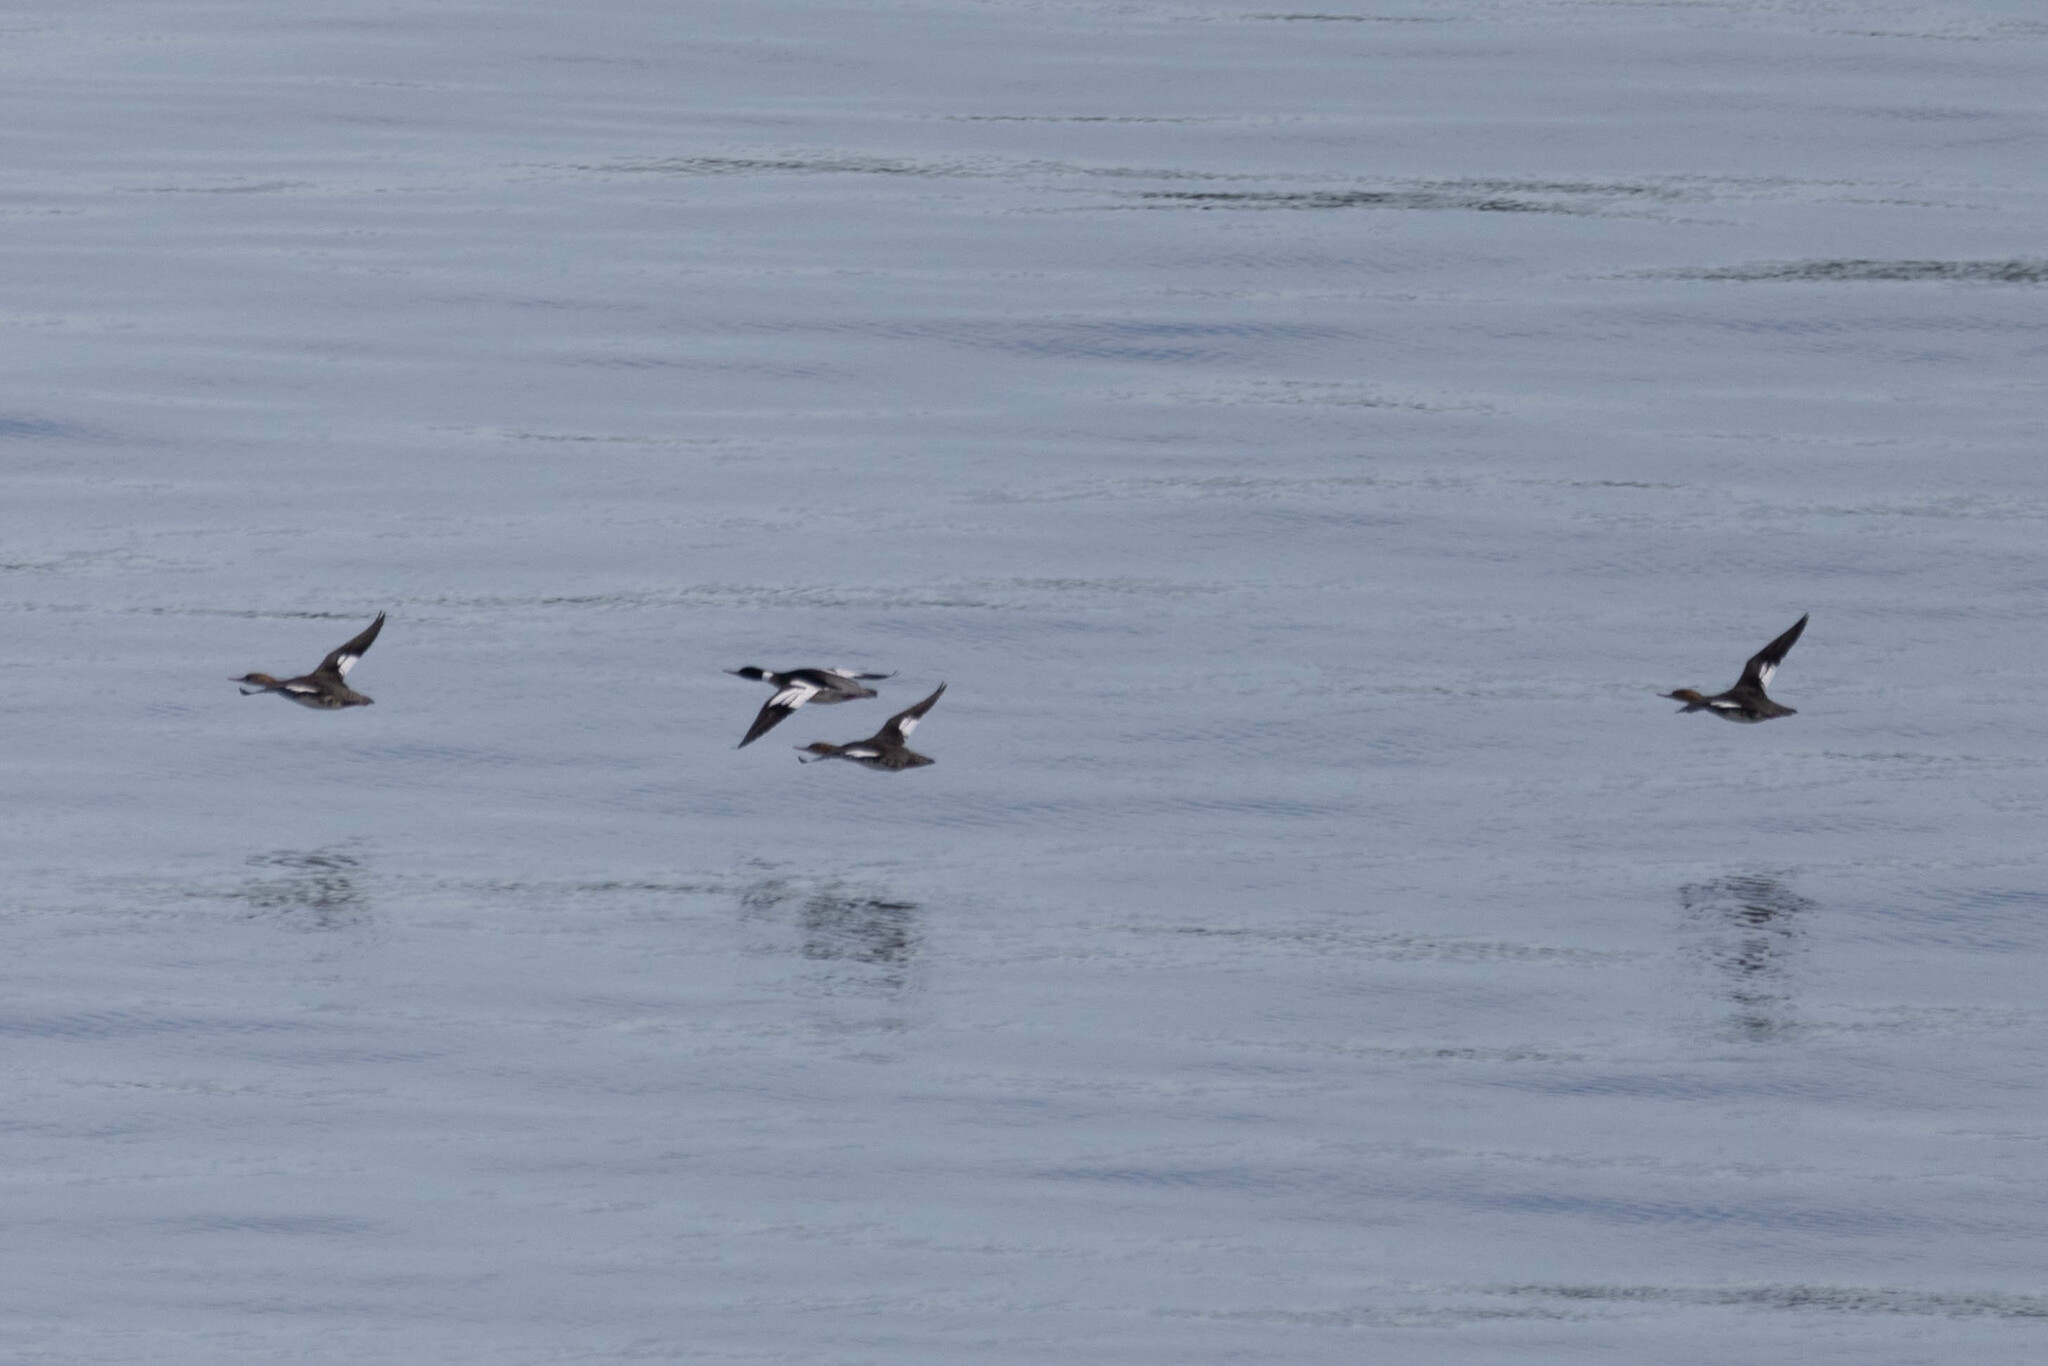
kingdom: Animalia
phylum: Chordata
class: Aves
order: Anseriformes
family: Anatidae
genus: Mergus
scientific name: Mergus serrator
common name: Red-breasted merganser
